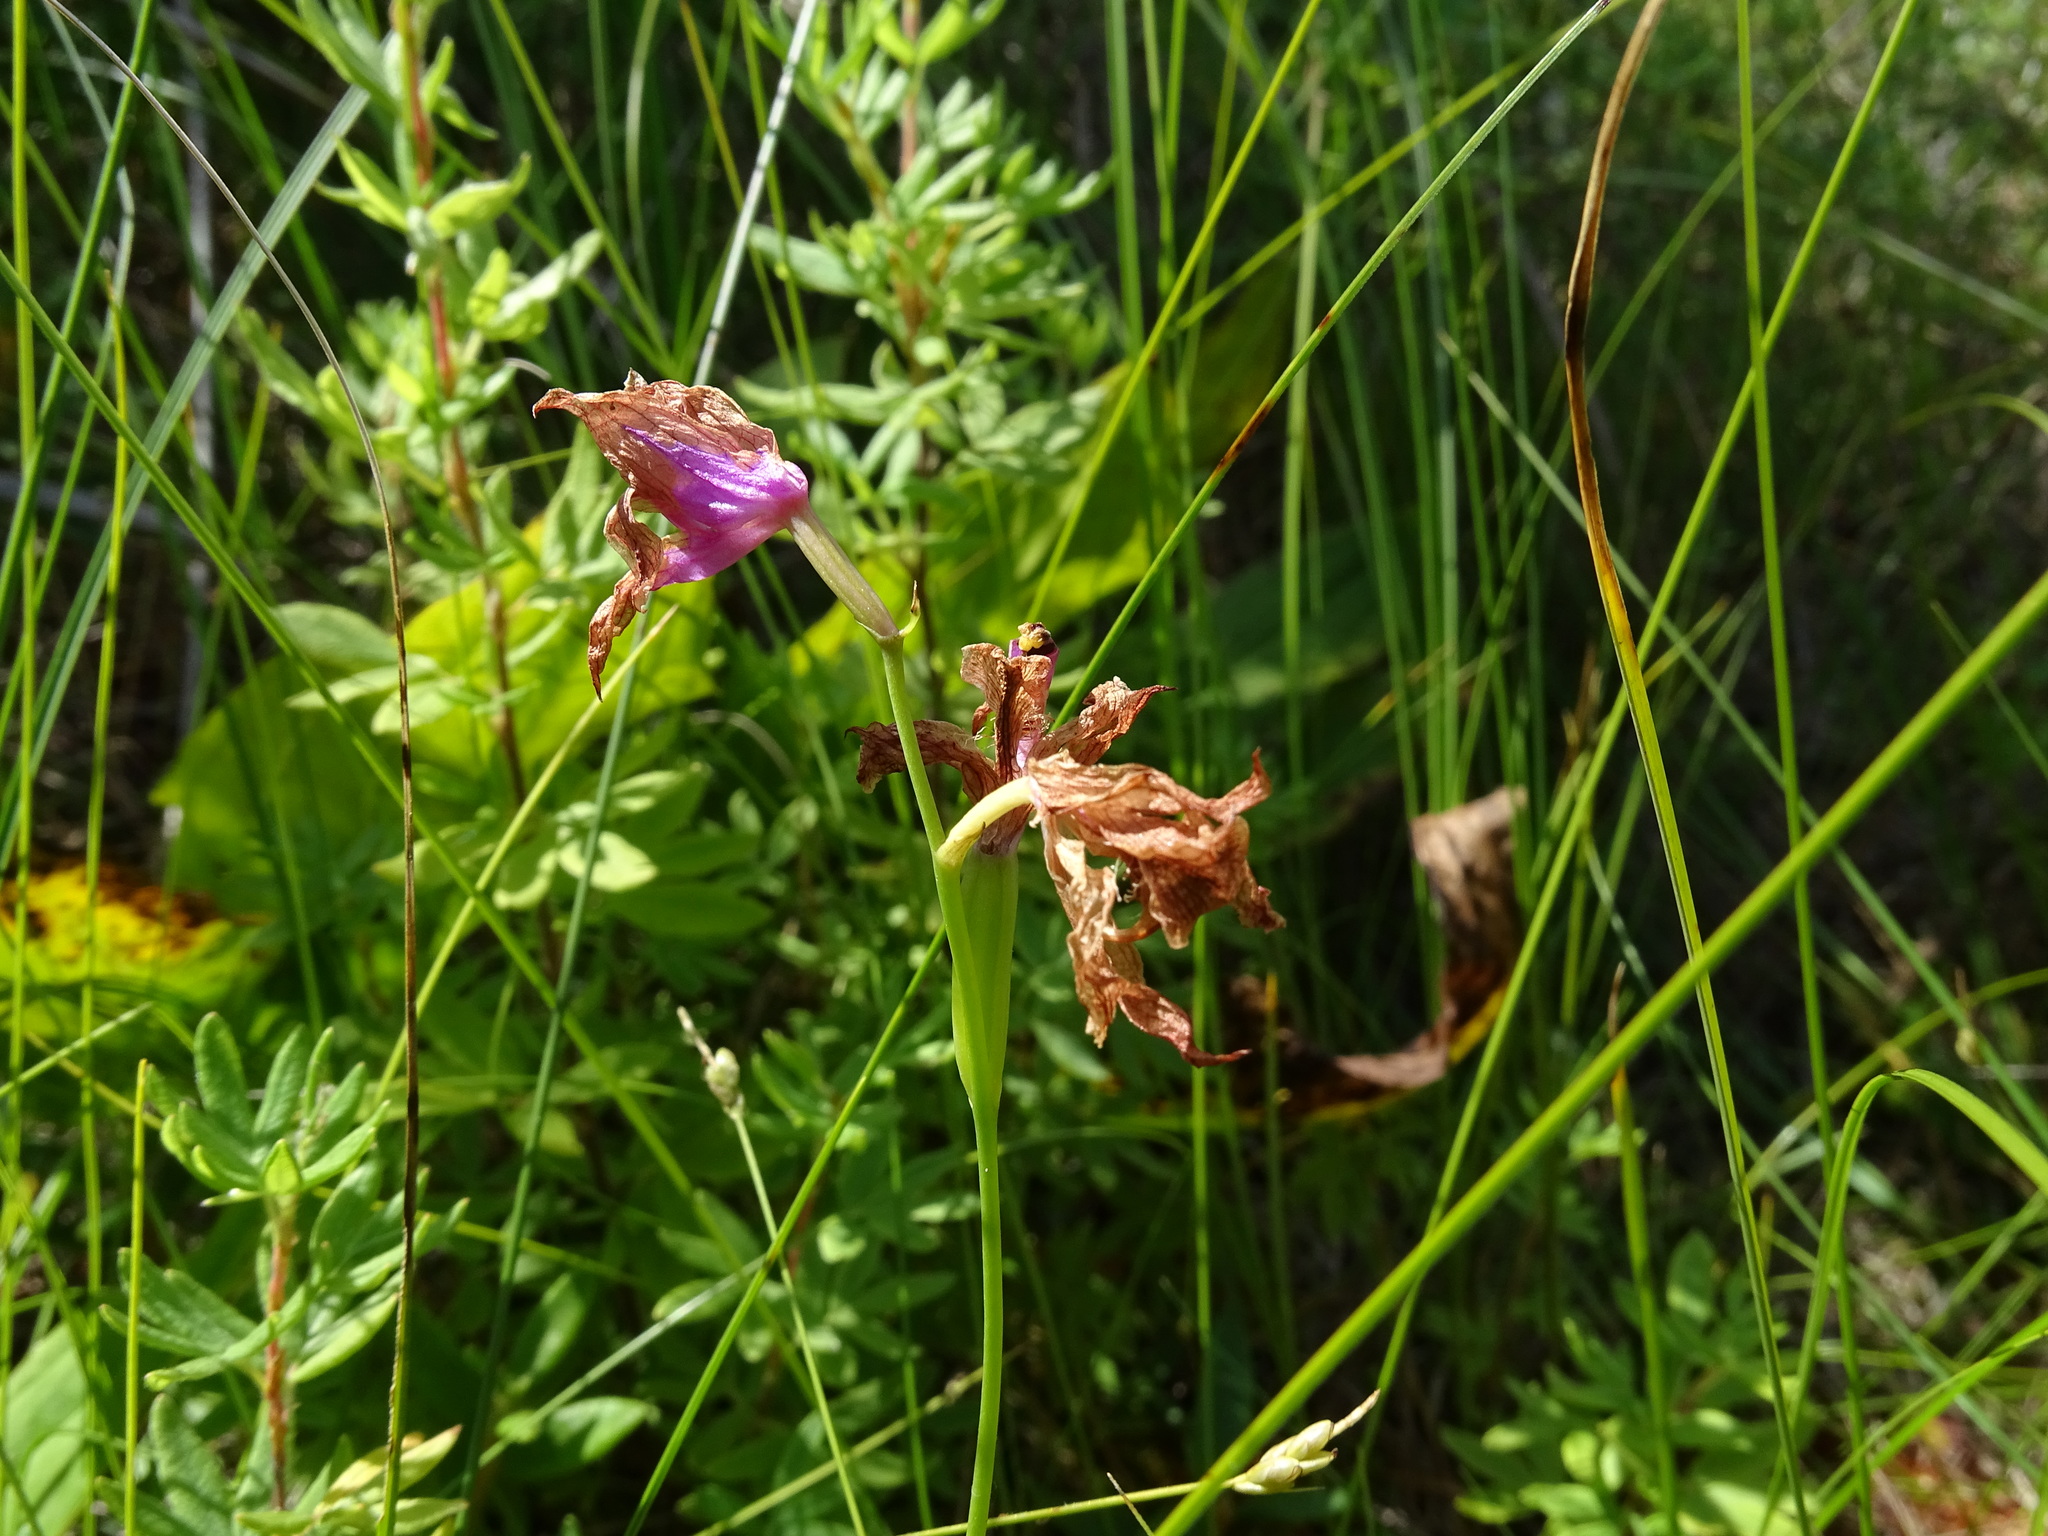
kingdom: Plantae
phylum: Tracheophyta
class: Liliopsida
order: Asparagales
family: Orchidaceae
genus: Calopogon
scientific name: Calopogon tuberosus
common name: Grass-pink
